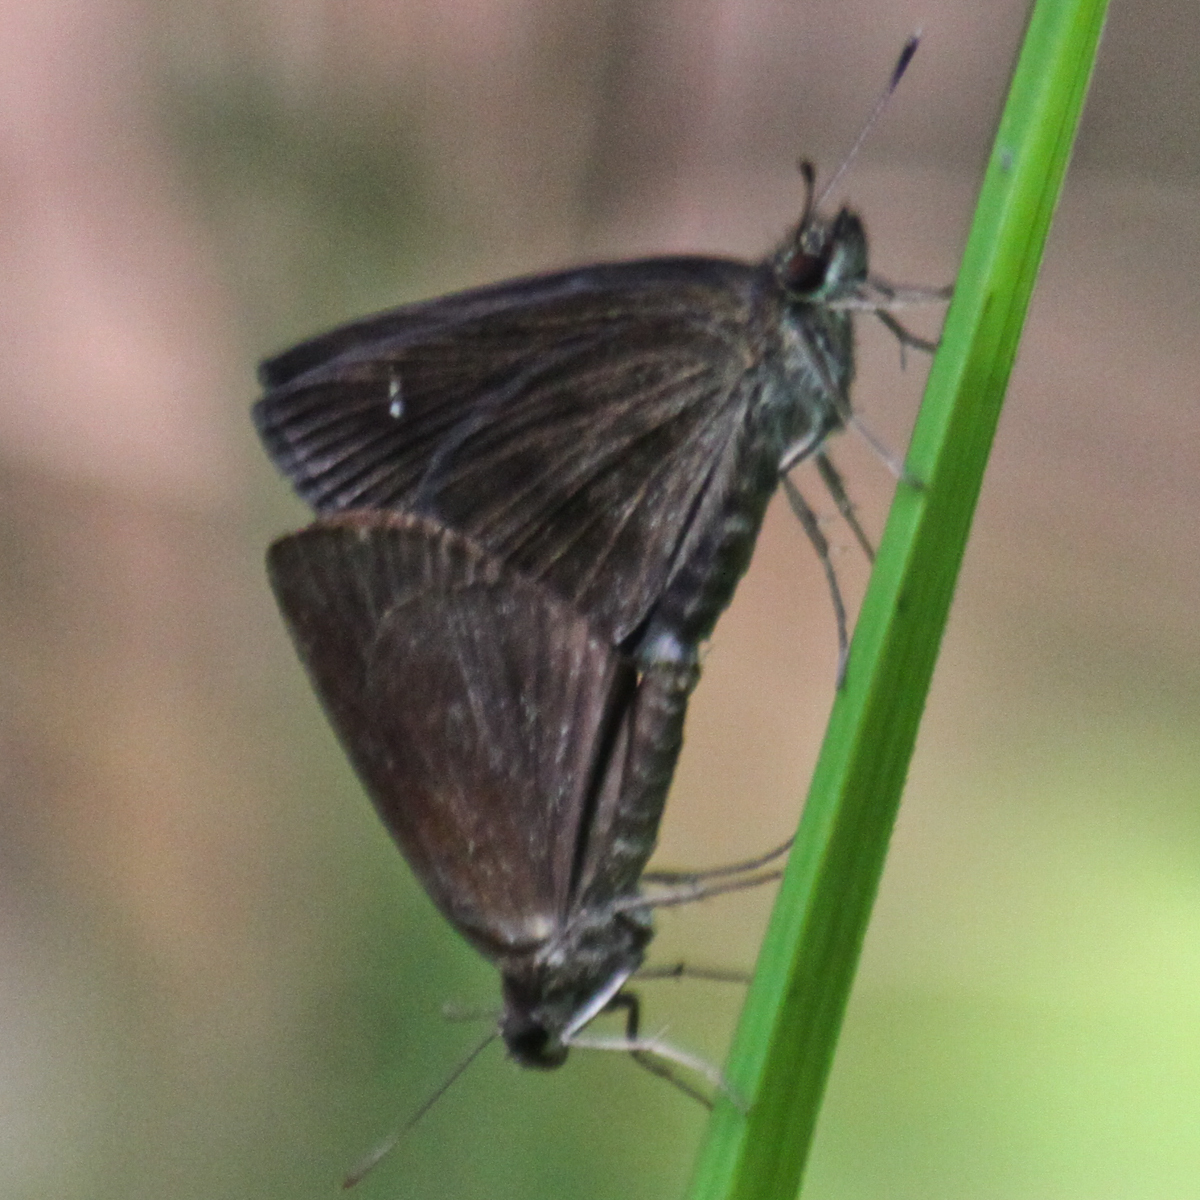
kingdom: Animalia
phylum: Arthropoda
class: Insecta
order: Lepidoptera
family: Hesperiidae
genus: Astictopterus
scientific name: Astictopterus jama
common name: Forest hopper
